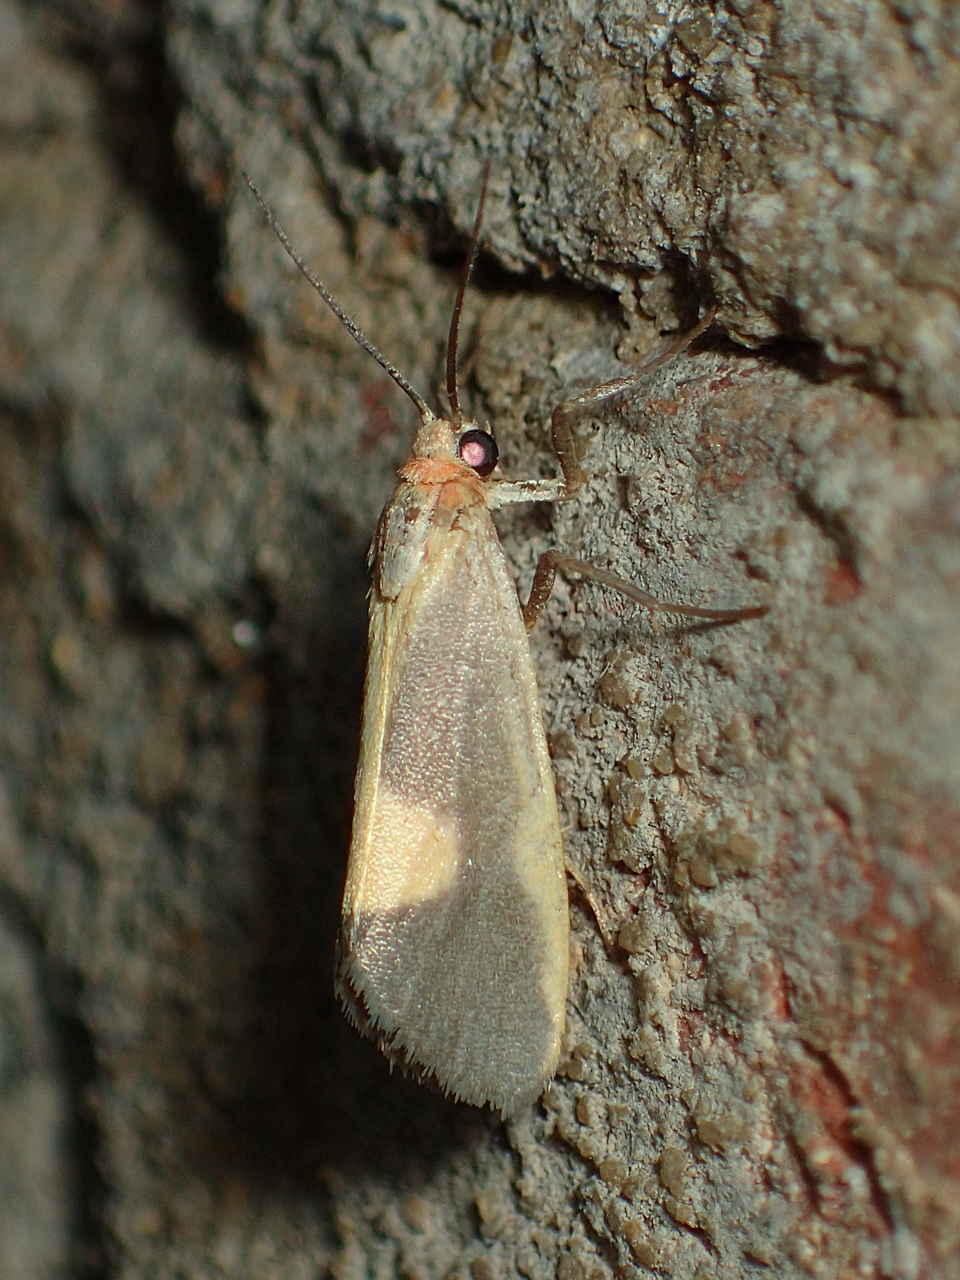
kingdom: Animalia
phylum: Arthropoda
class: Insecta
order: Lepidoptera
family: Erebidae
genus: Cisthene
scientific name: Cisthene plumbea
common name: Lead colored lichen moth
